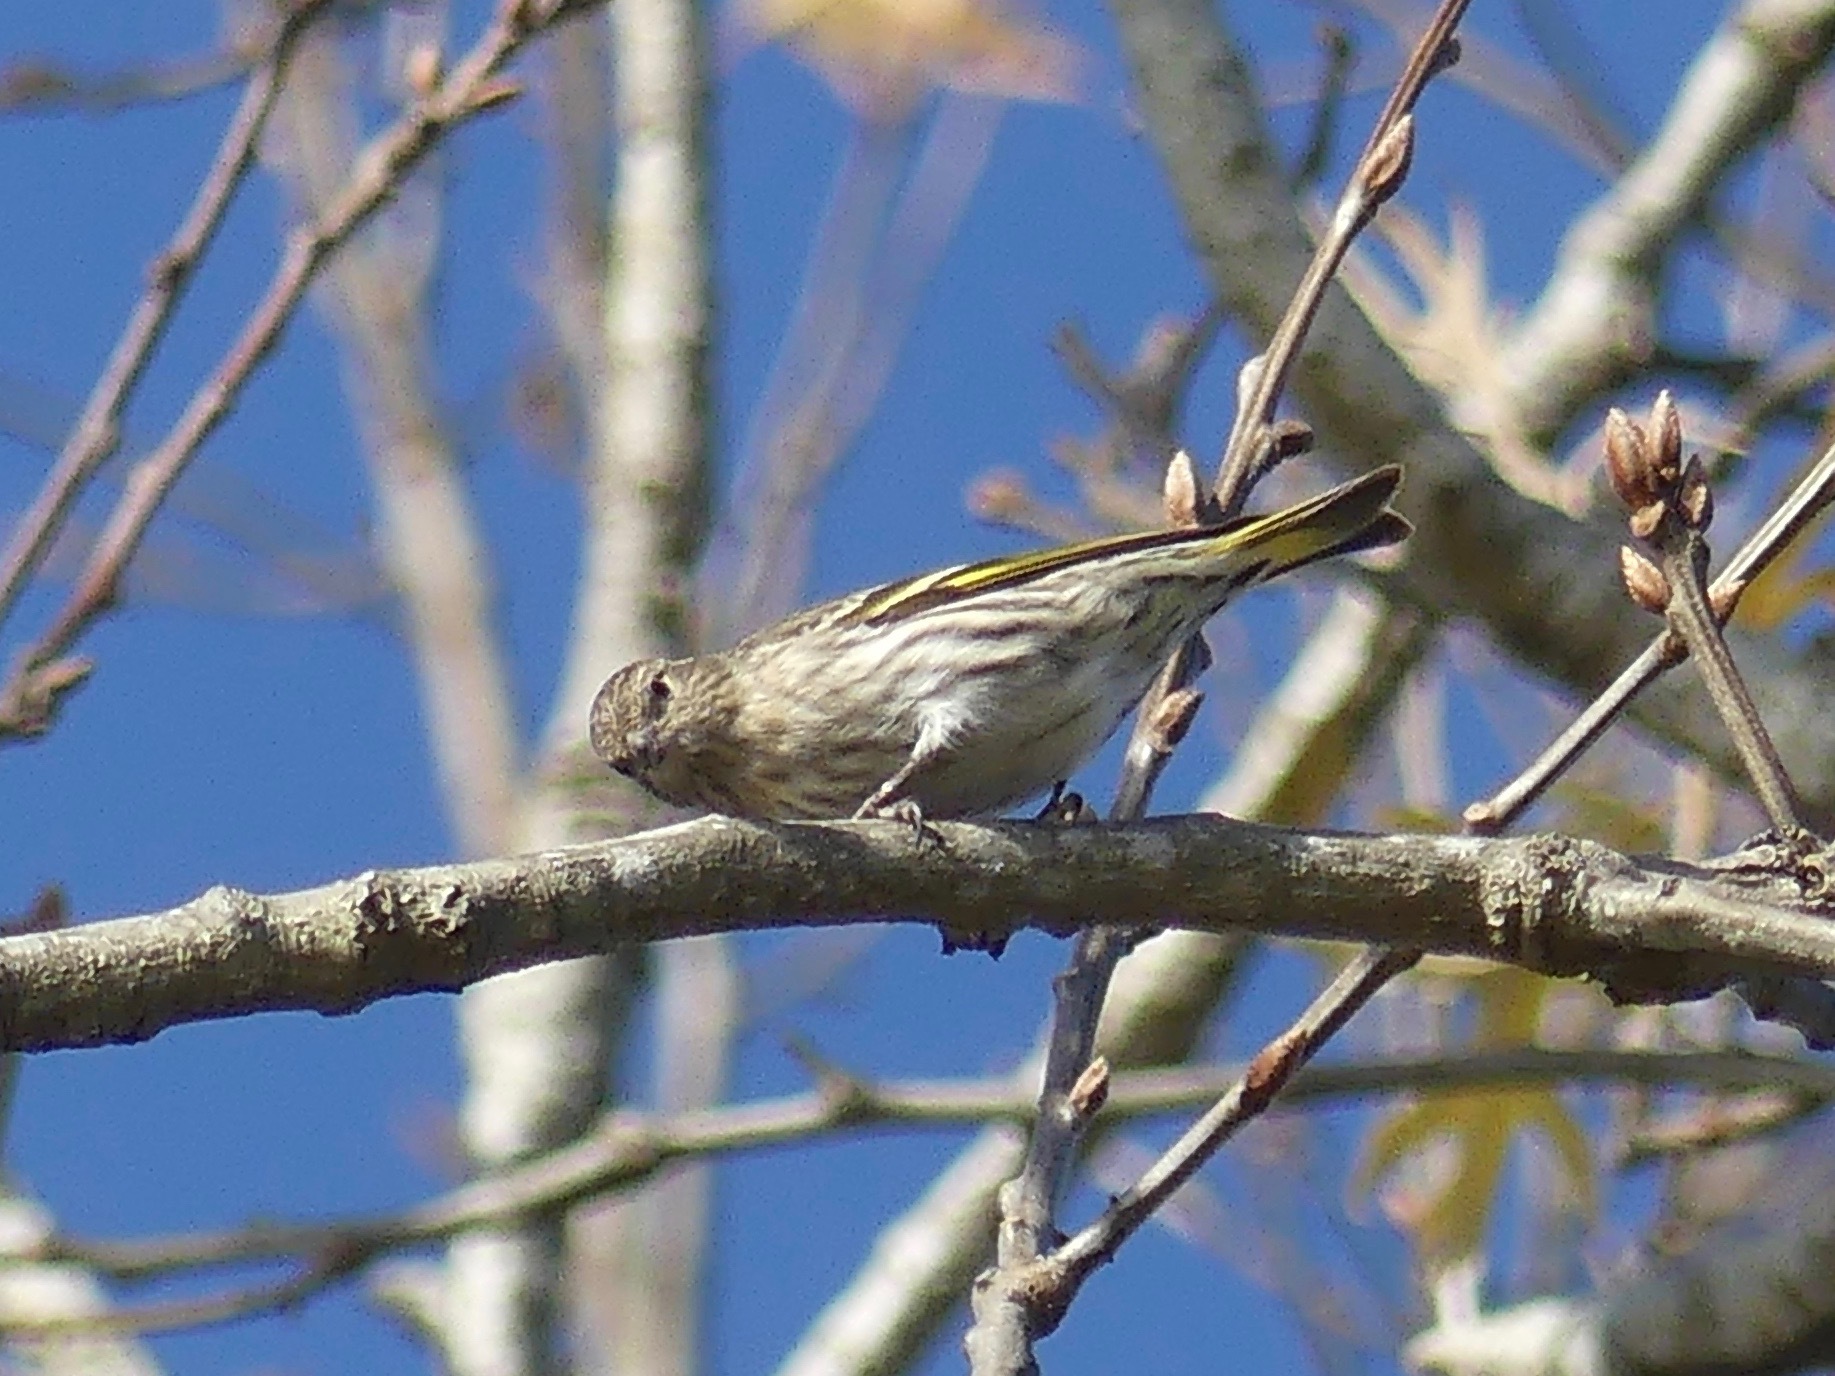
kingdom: Animalia
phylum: Chordata
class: Aves
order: Passeriformes
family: Fringillidae
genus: Spinus
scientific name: Spinus pinus
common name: Pine siskin
